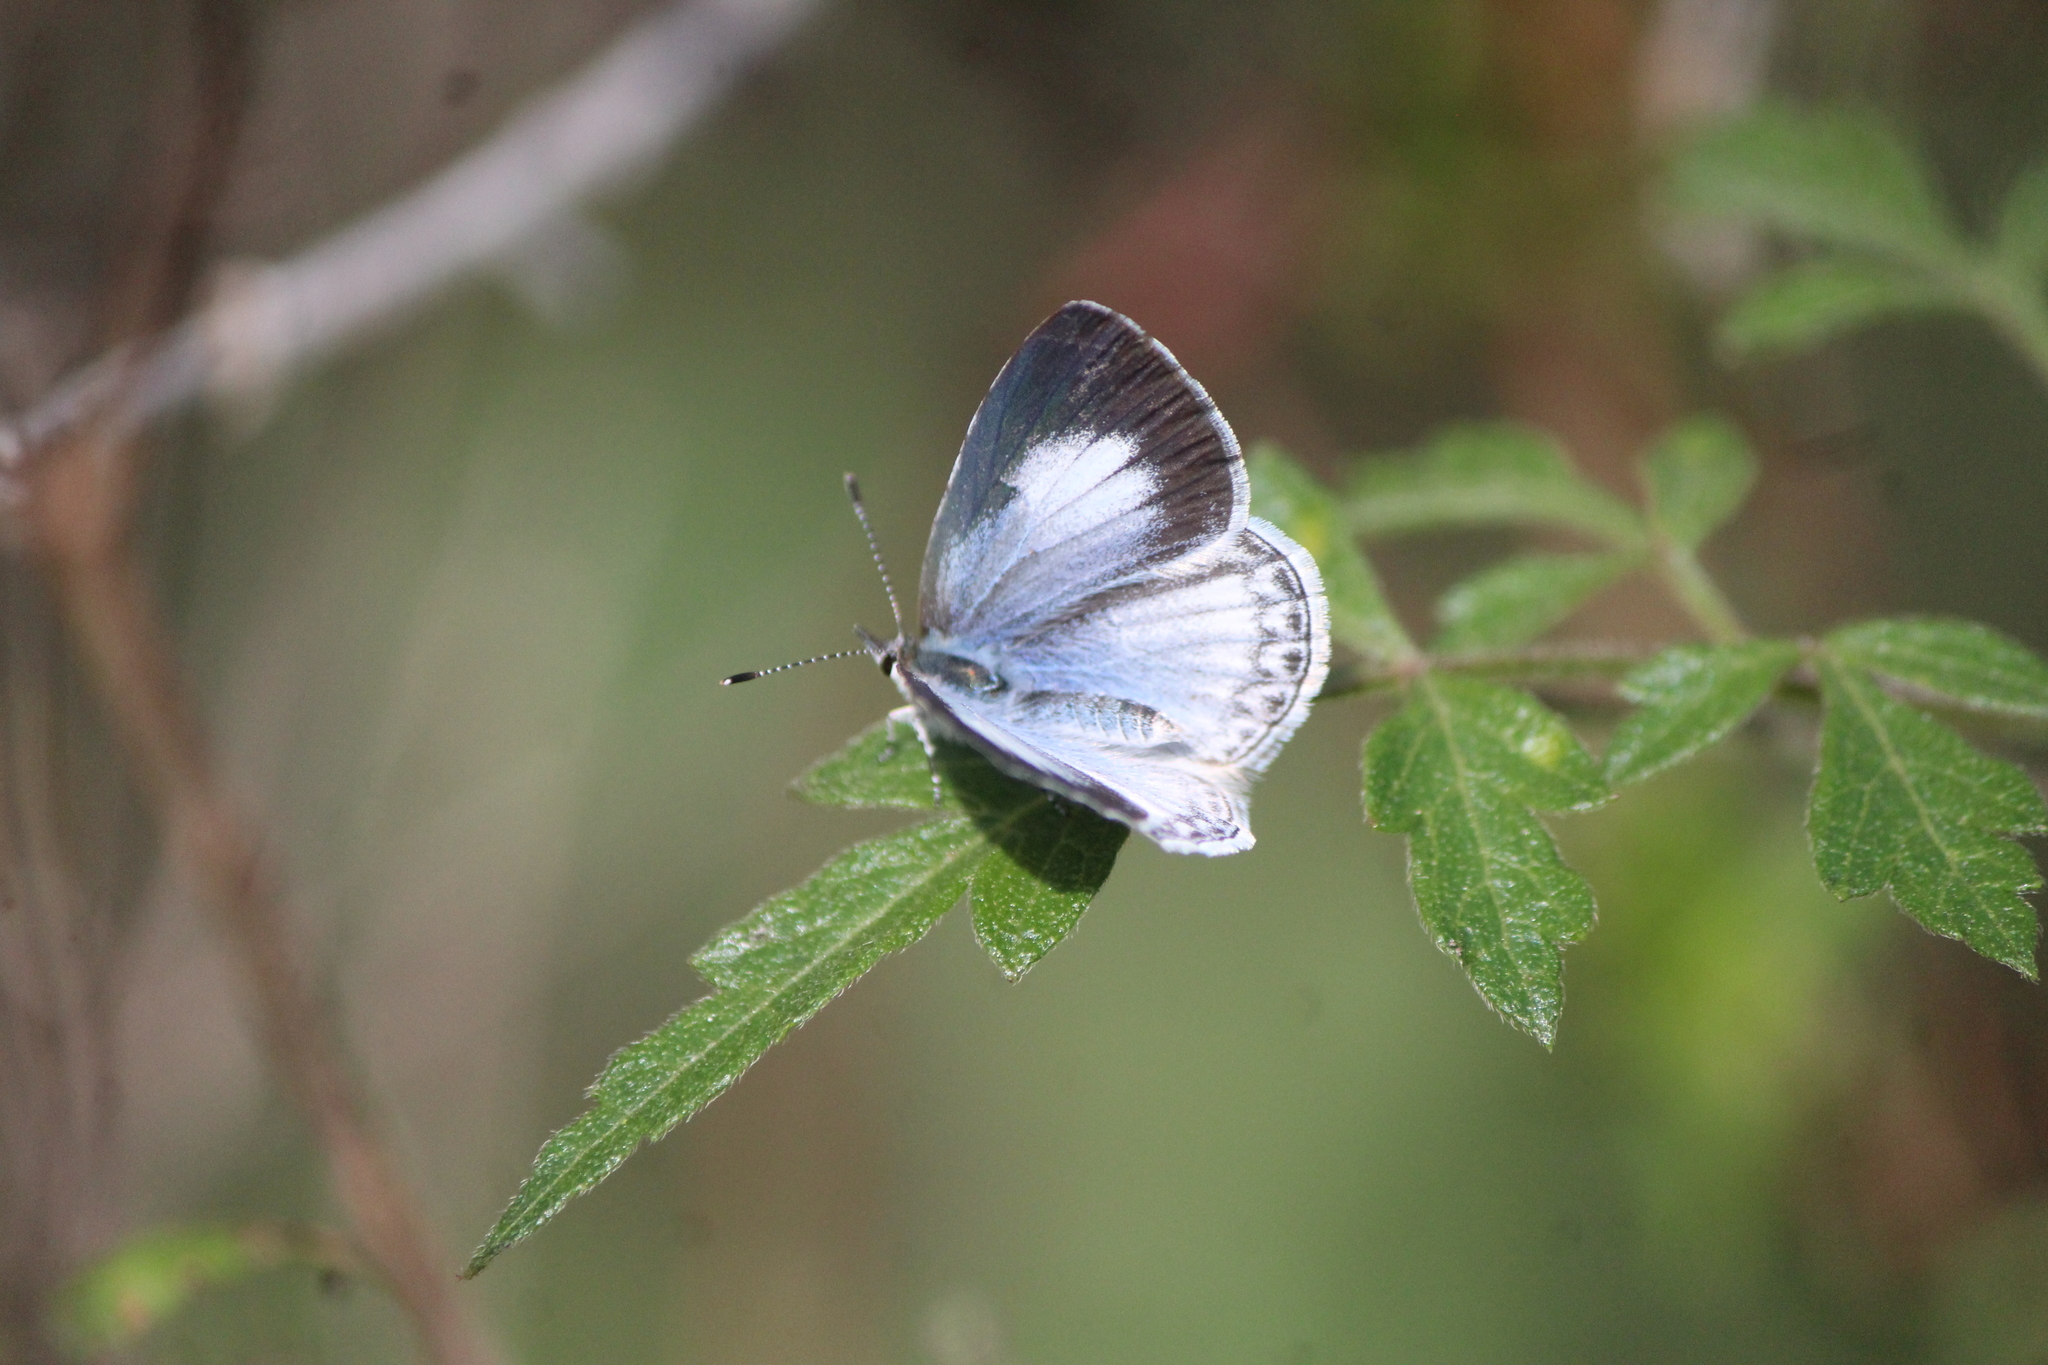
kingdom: Animalia
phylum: Arthropoda
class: Insecta
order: Lepidoptera
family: Lycaenidae
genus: Celastrina
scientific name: Celastrina ladon
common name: Spring azure
